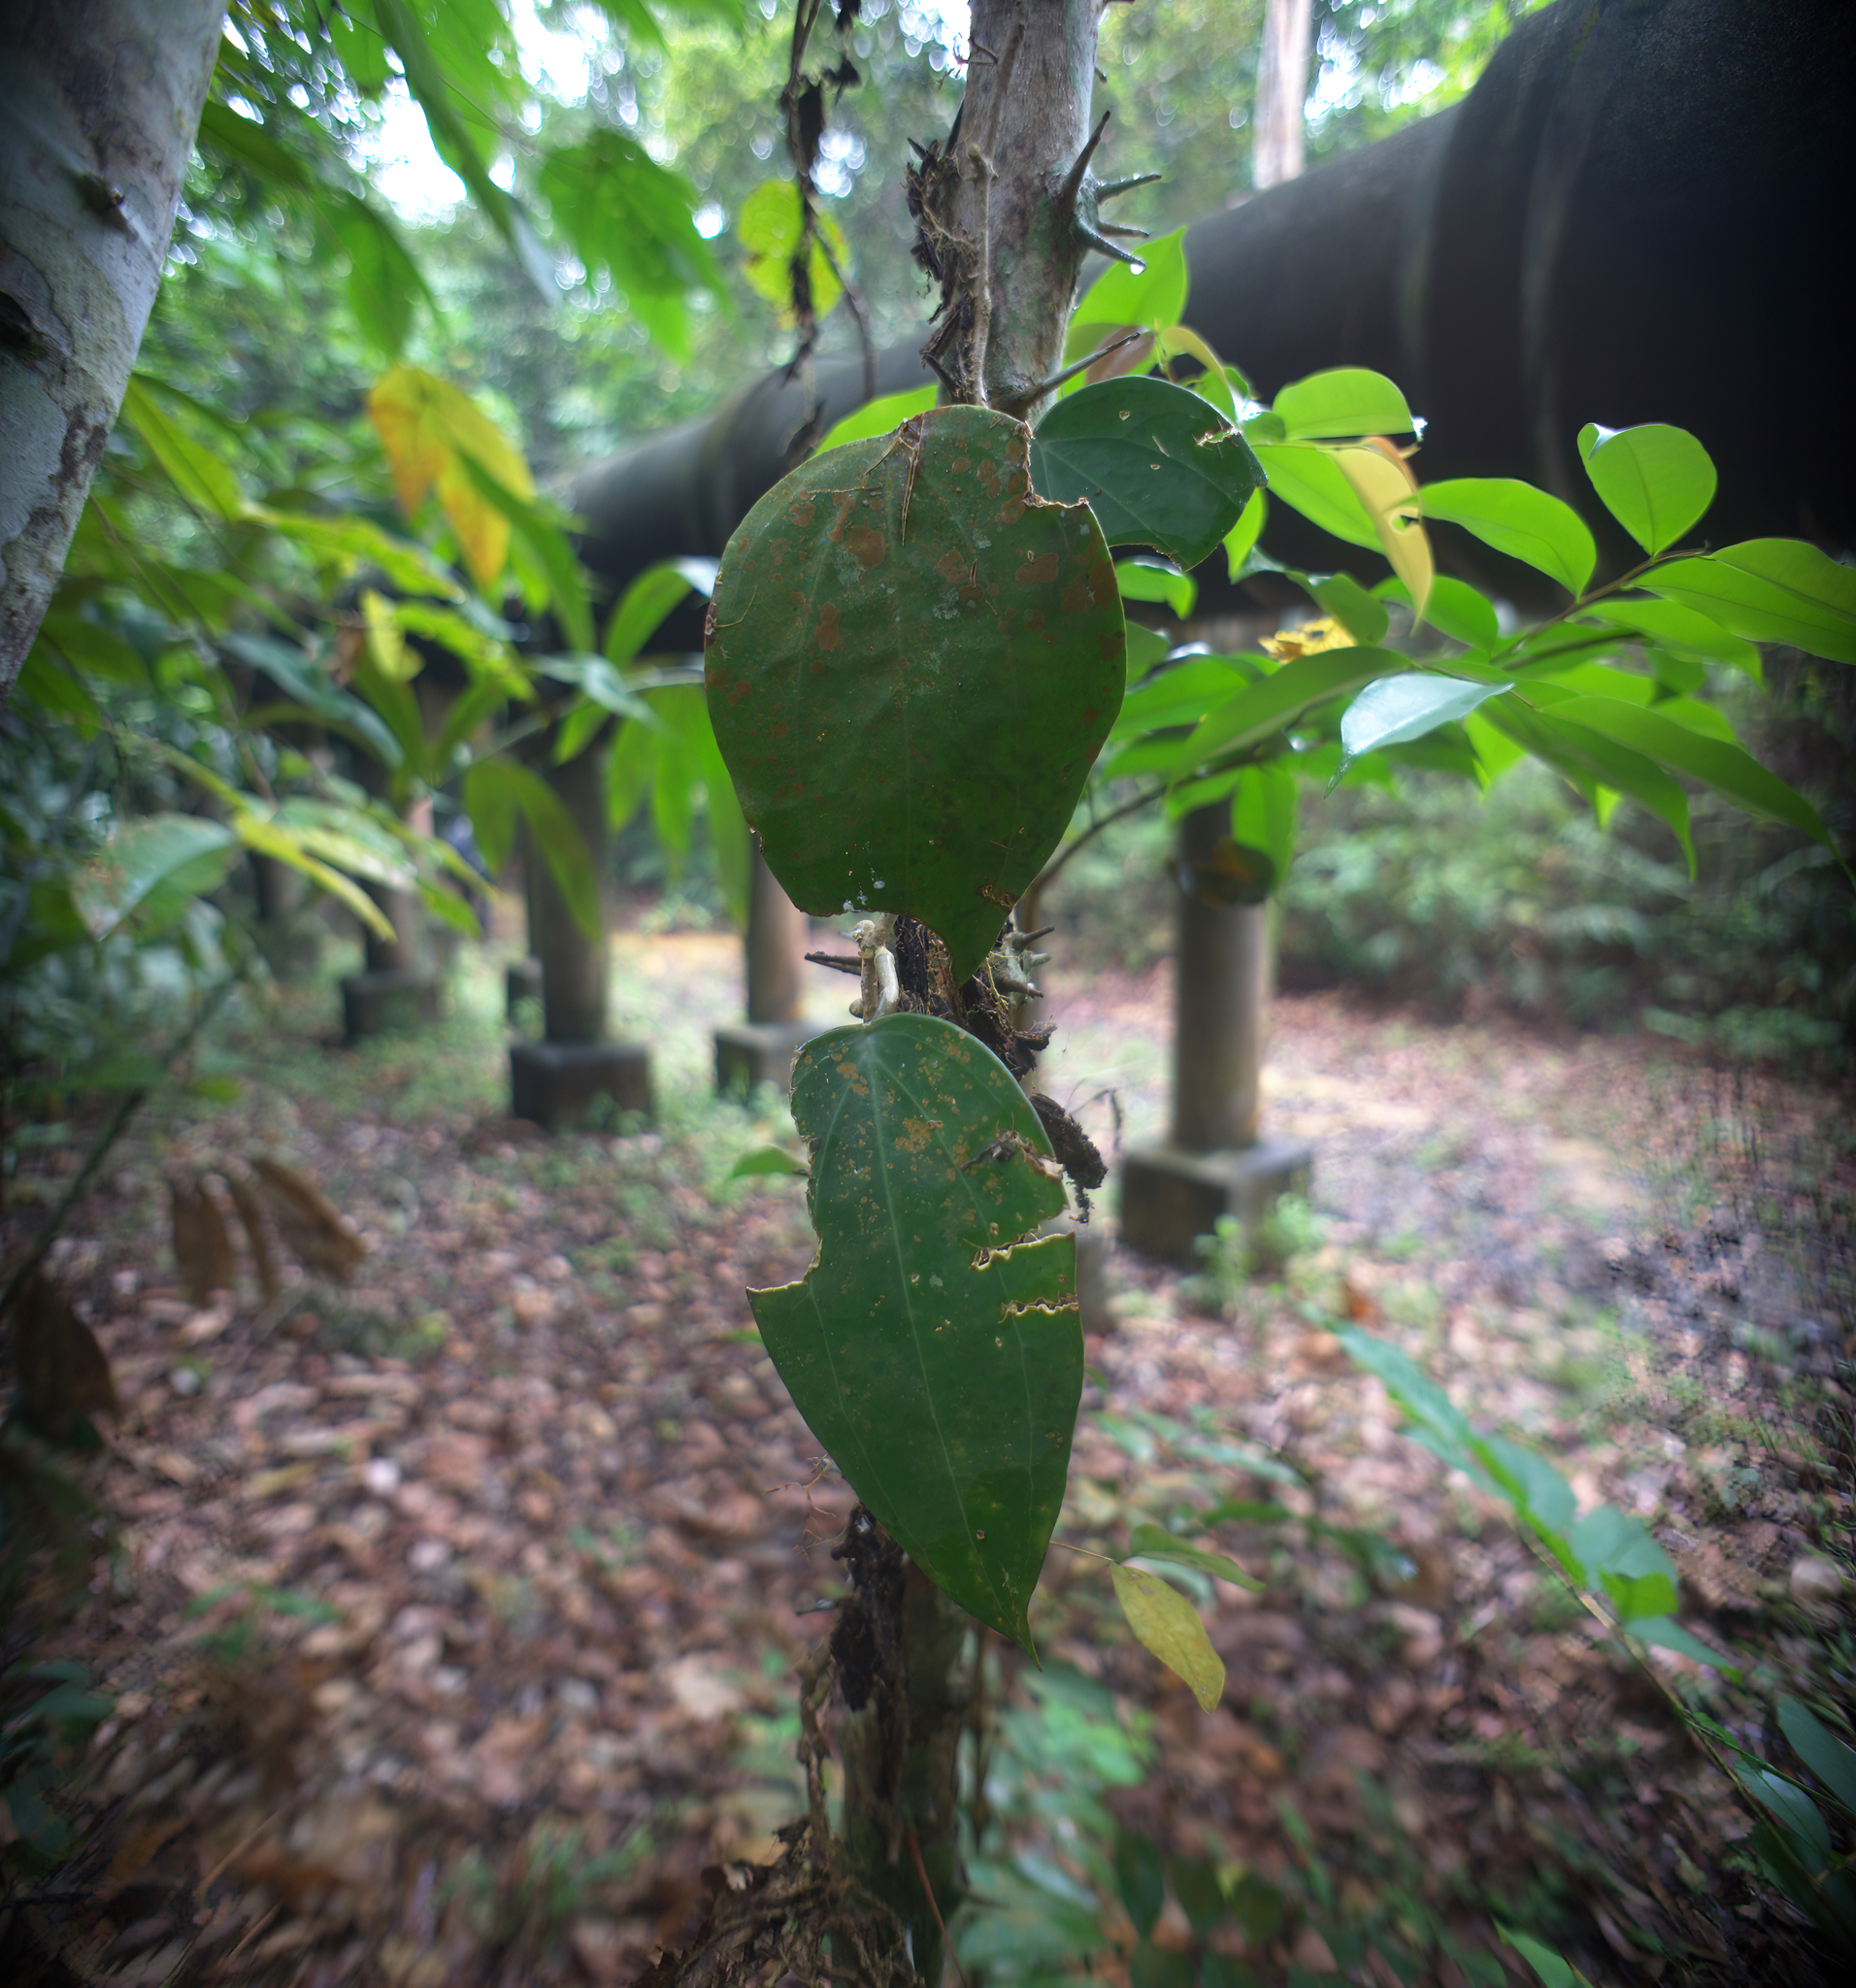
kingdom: Plantae
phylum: Tracheophyta
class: Magnoliopsida
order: Gentianales
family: Apocynaceae
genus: Hoya
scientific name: Hoya latifolia
